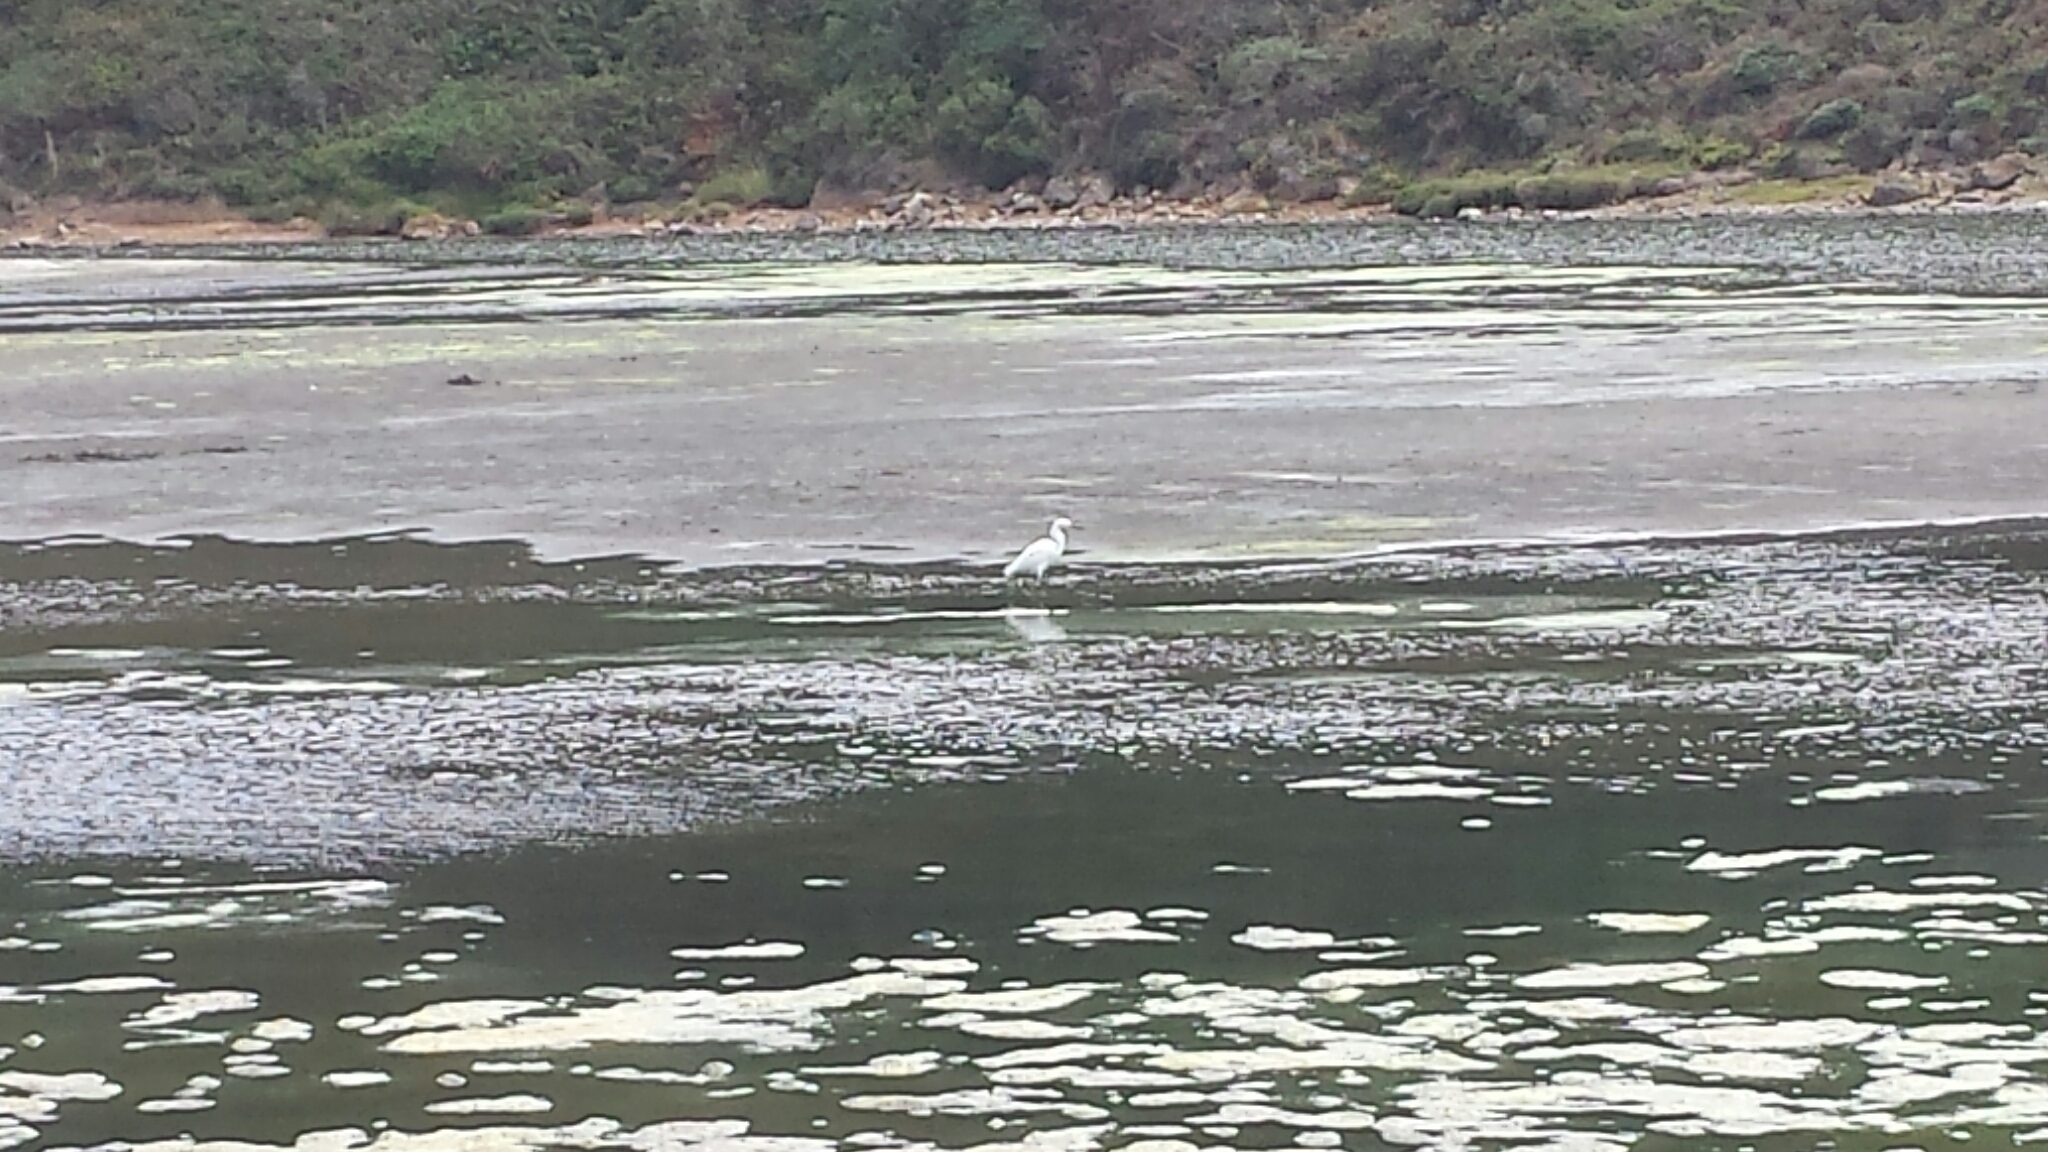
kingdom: Animalia
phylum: Chordata
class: Aves
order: Pelecaniformes
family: Ardeidae
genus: Egretta
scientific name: Egretta thula
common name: Snowy egret
